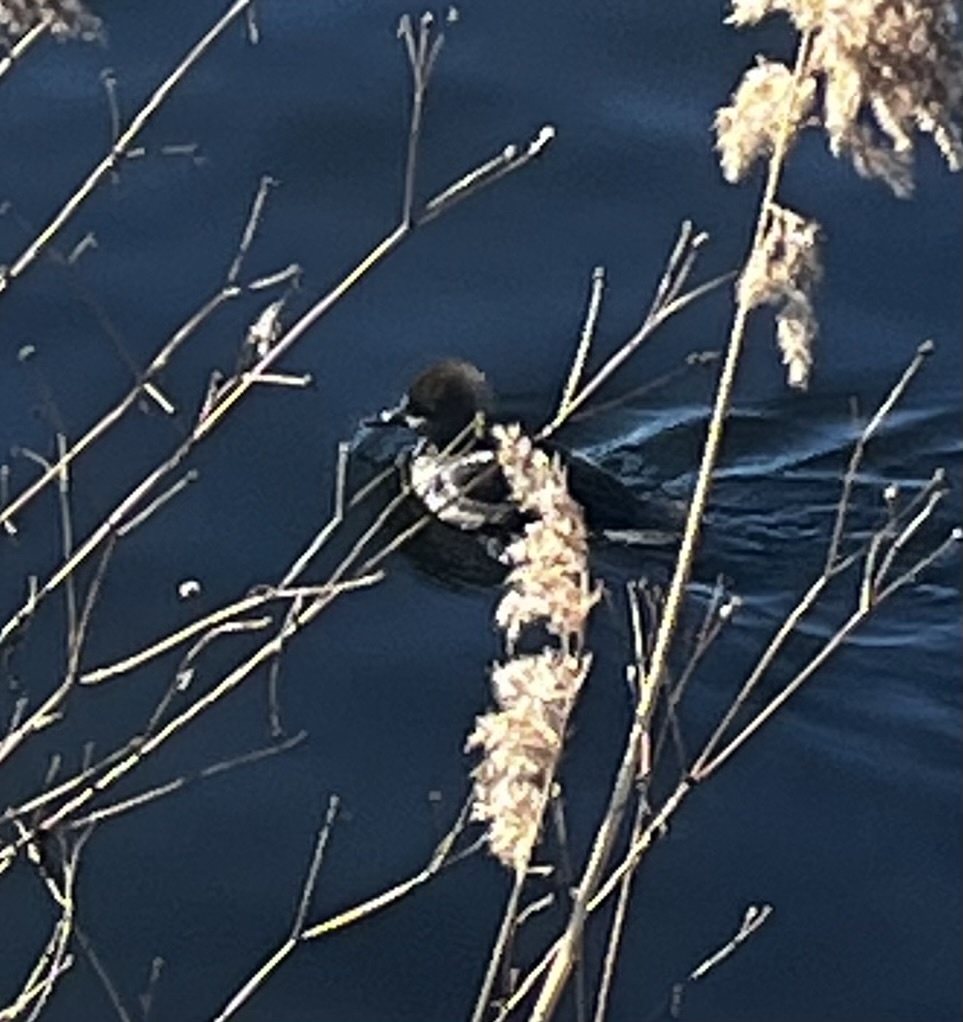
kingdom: Animalia
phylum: Chordata
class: Aves
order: Anseriformes
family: Anatidae
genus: Lophodytes
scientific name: Lophodytes cucullatus
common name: Hooded merganser
